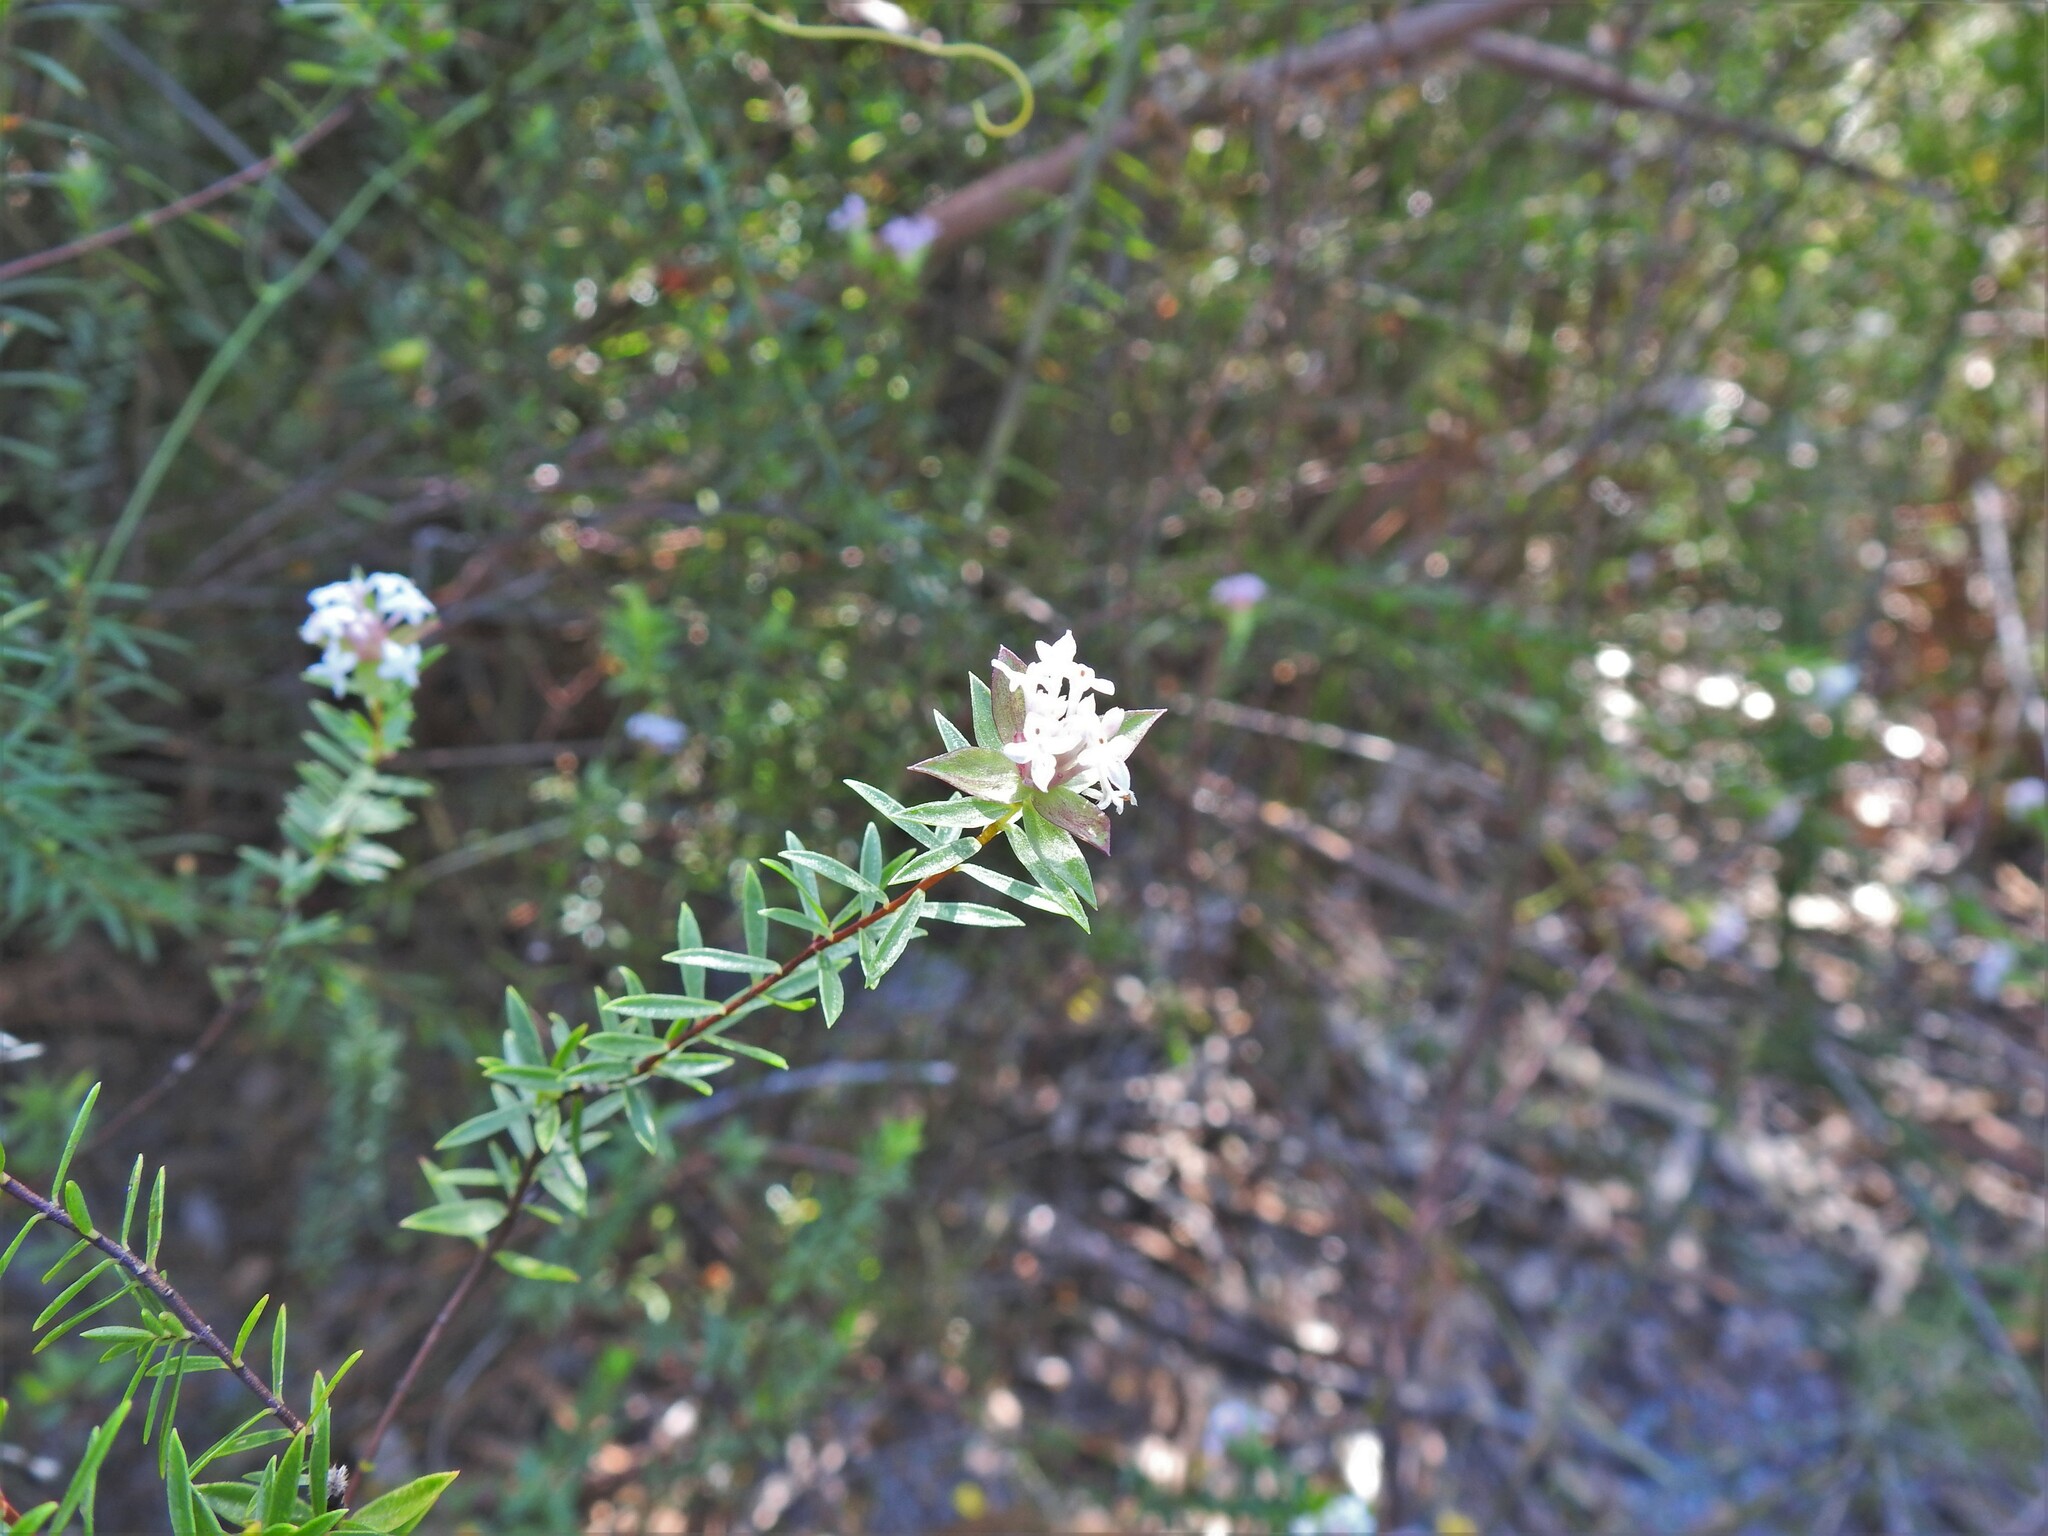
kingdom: Plantae
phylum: Tracheophyta
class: Magnoliopsida
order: Malvales
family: Thymelaeaceae
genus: Pimelea
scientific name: Pimelea linifolia
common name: Queen-of-the-bush
